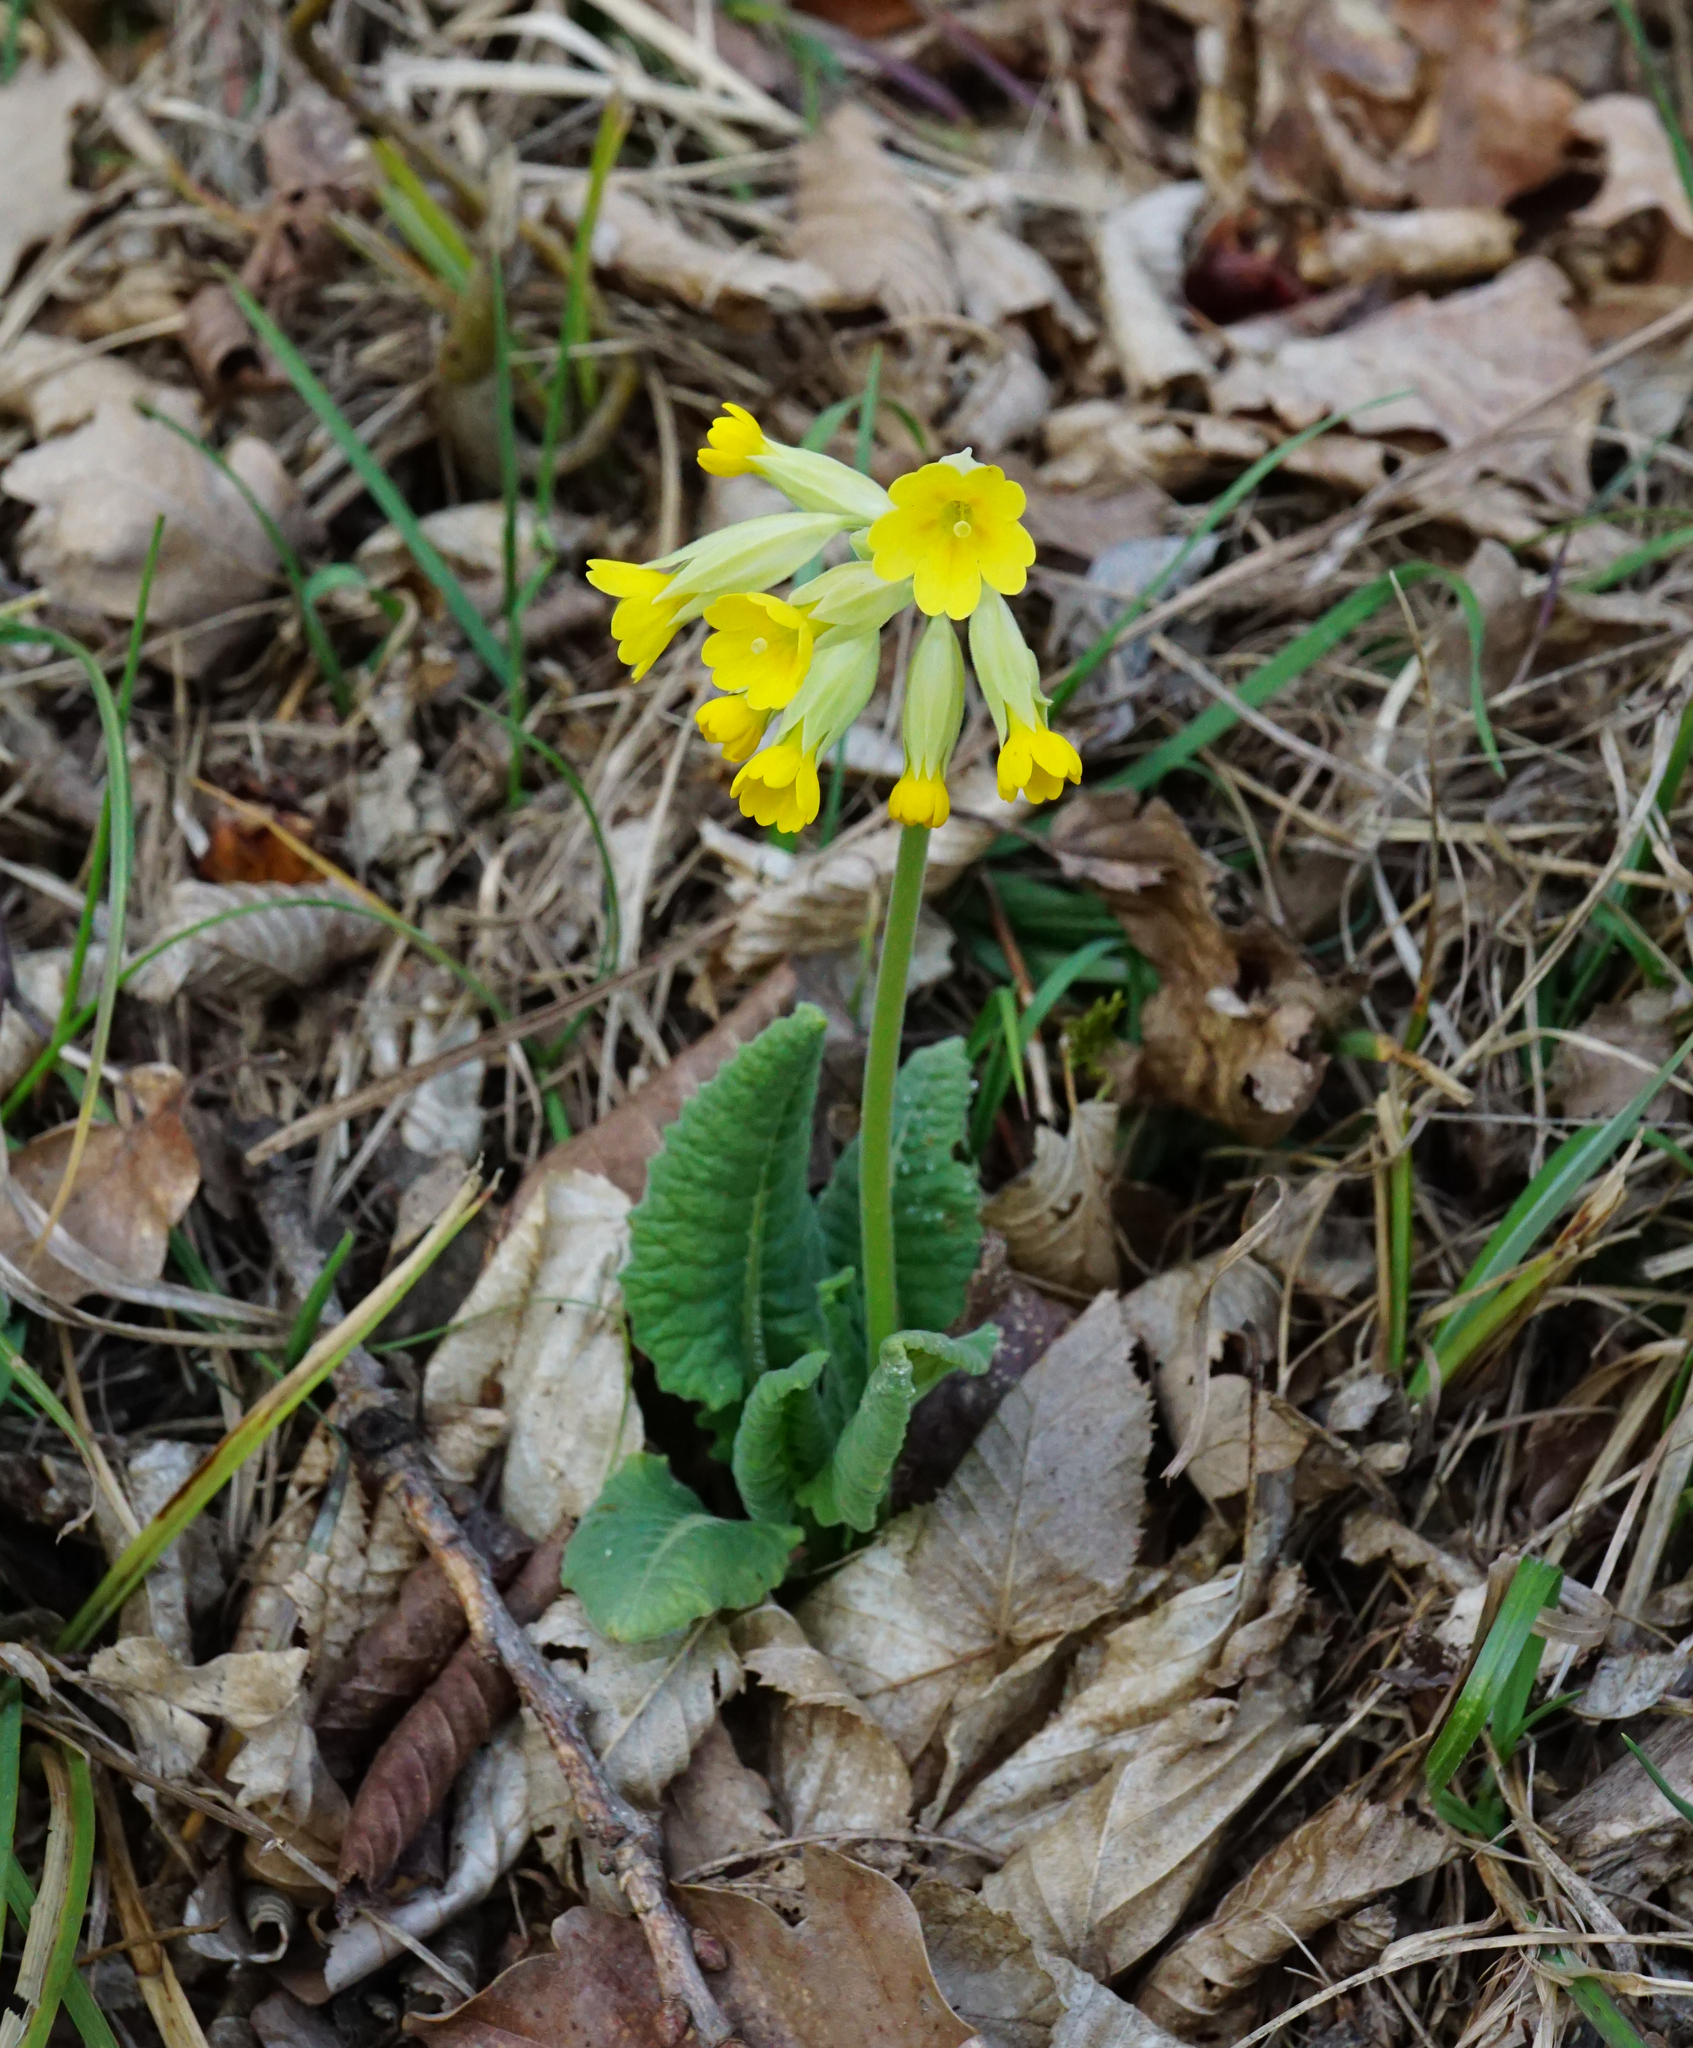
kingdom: Plantae
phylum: Tracheophyta
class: Magnoliopsida
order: Ericales
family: Primulaceae
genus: Primula
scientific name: Primula veris
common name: Cowslip
